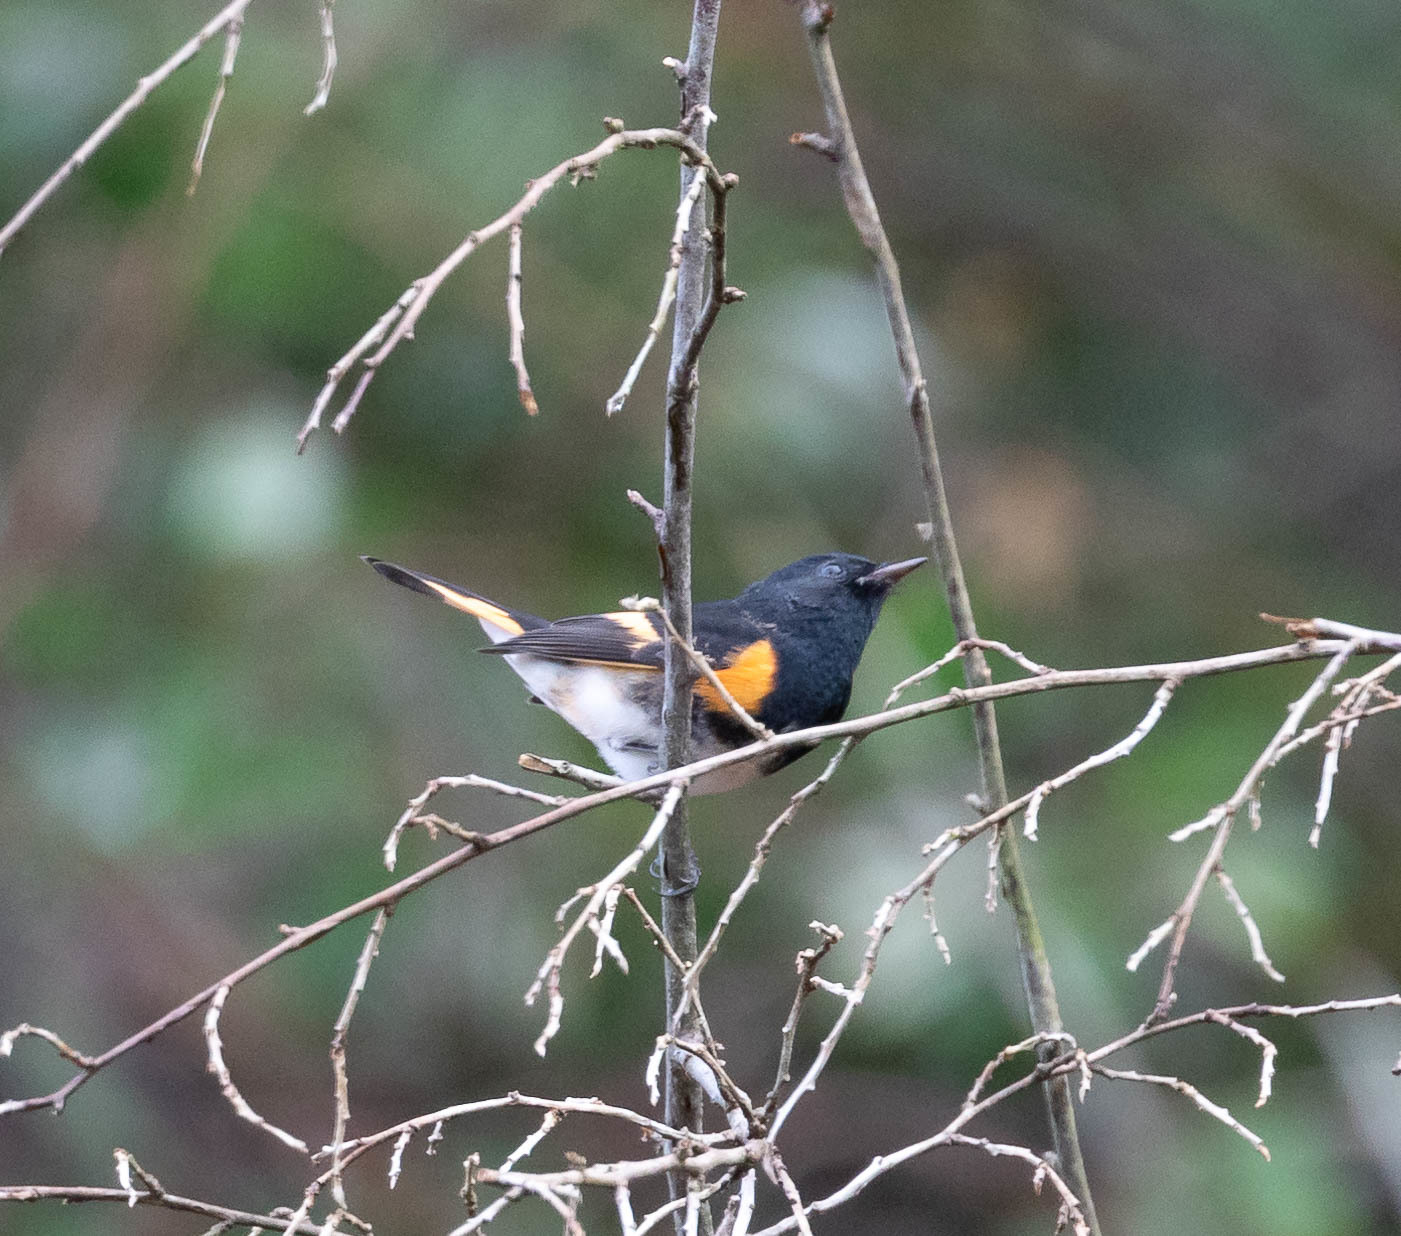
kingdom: Animalia
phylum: Chordata
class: Aves
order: Passeriformes
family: Parulidae
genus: Setophaga
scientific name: Setophaga ruticilla
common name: American redstart
